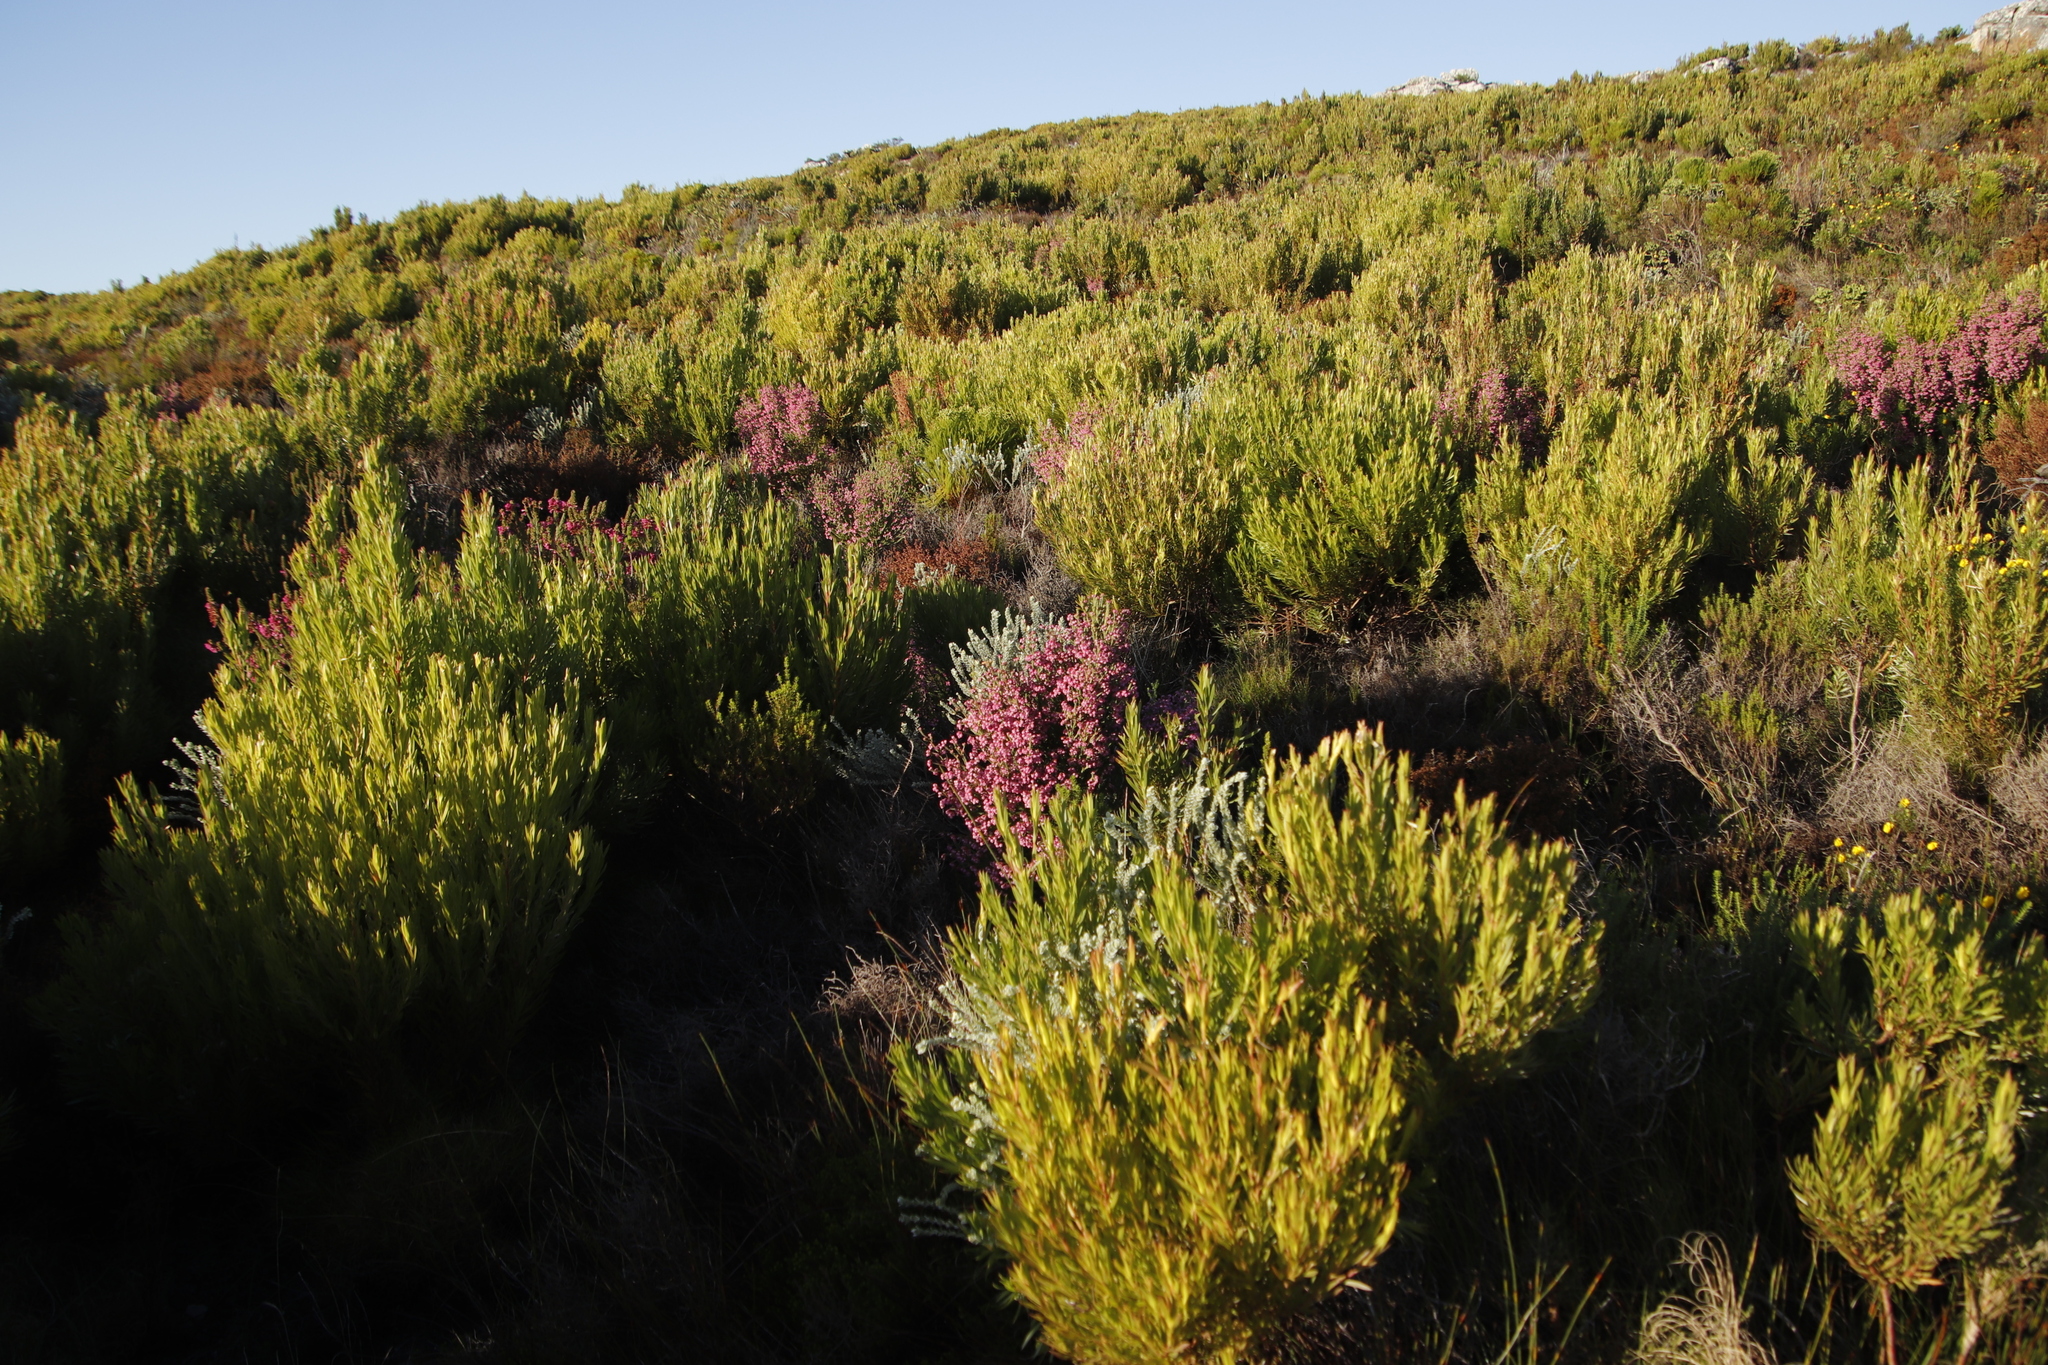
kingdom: Plantae
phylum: Tracheophyta
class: Magnoliopsida
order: Proteales
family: Proteaceae
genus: Leucadendron
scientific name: Leucadendron xanthoconus
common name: Sickle-leaf conebush
